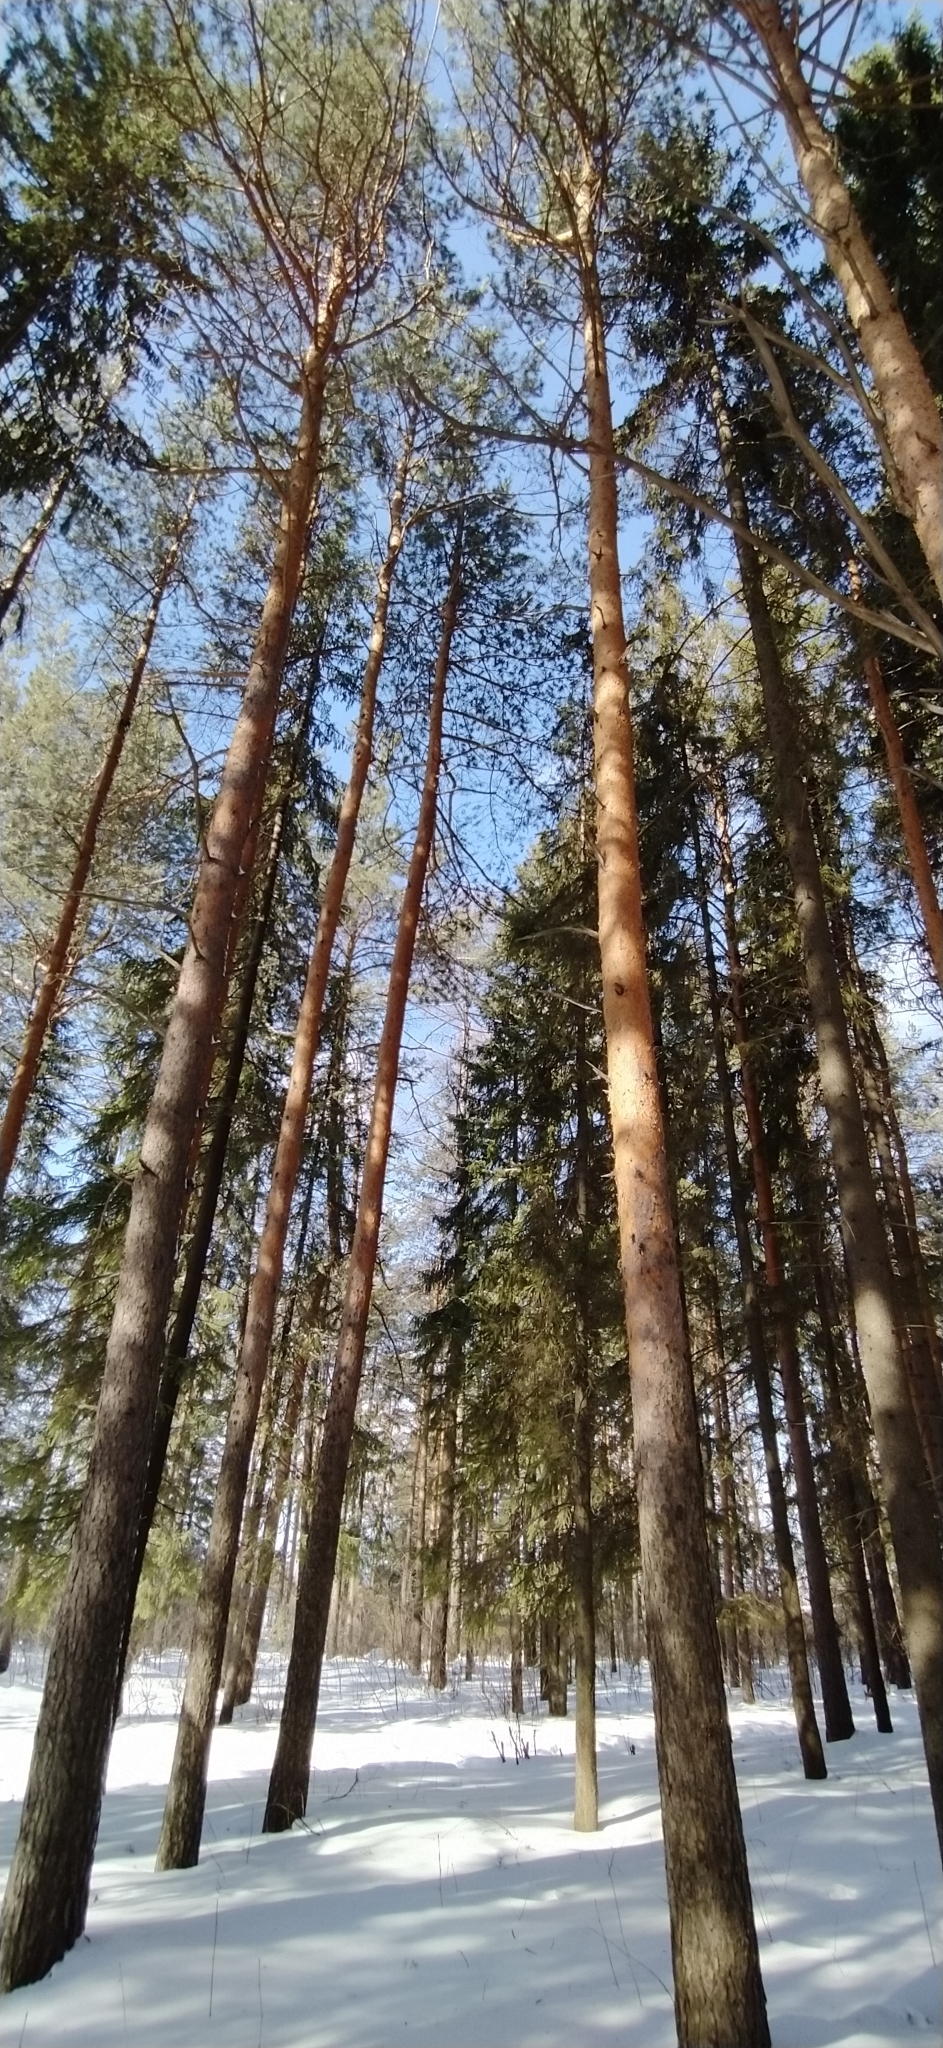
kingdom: Plantae
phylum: Tracheophyta
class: Pinopsida
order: Pinales
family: Pinaceae
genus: Pinus
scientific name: Pinus sylvestris
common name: Scots pine
